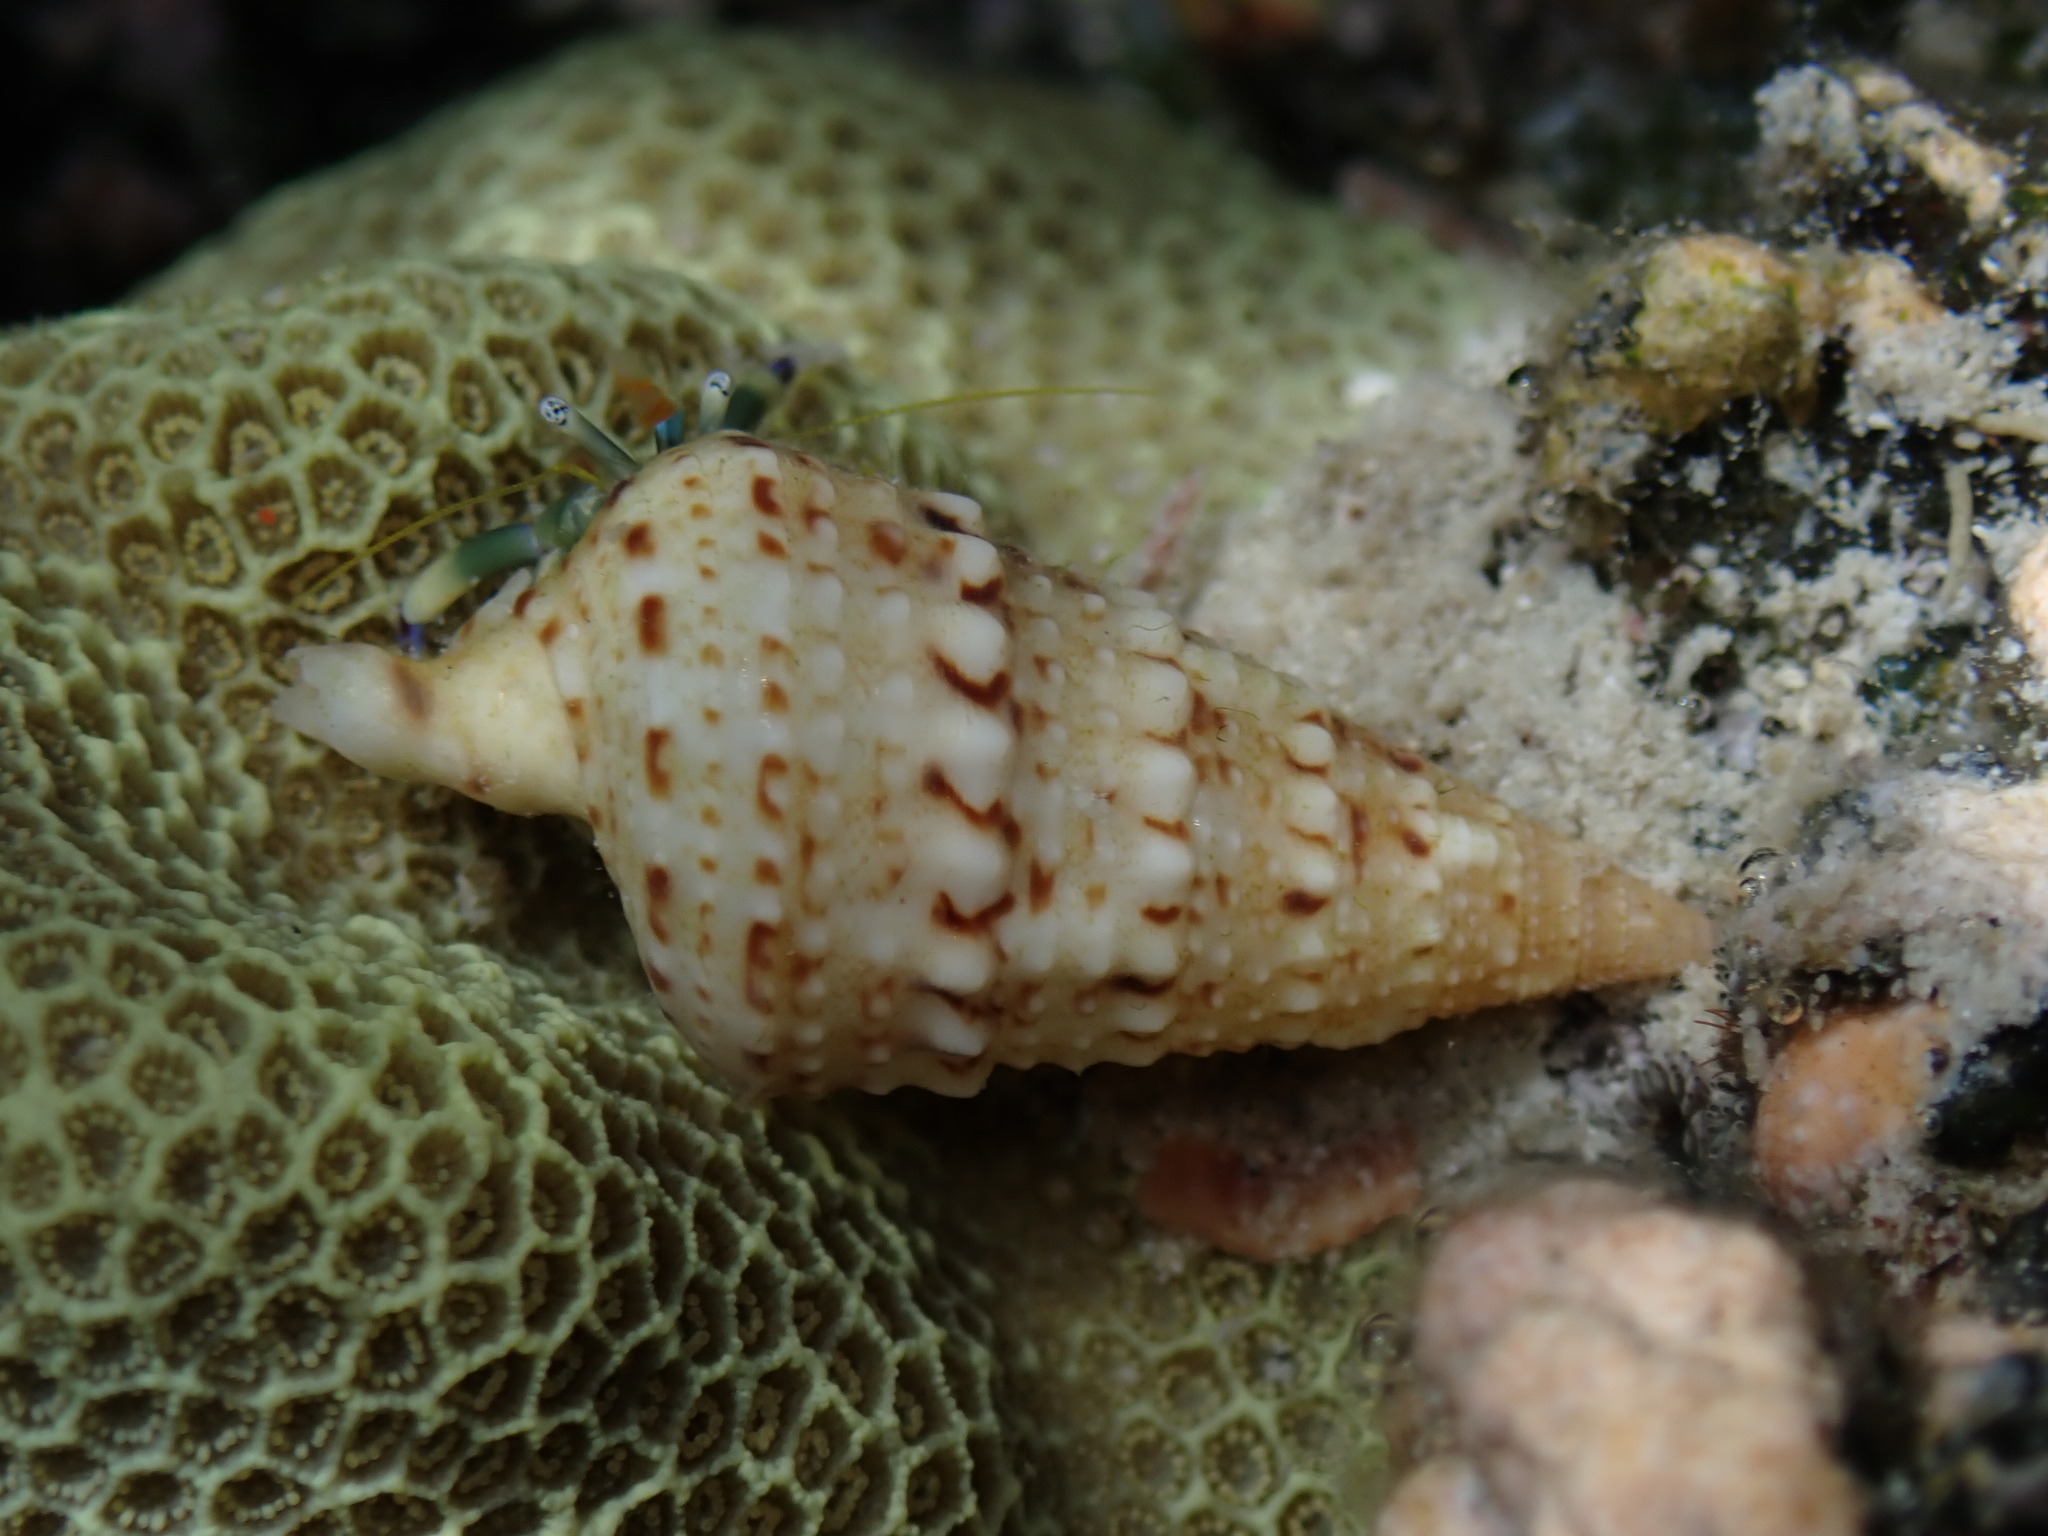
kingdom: Animalia
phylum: Mollusca
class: Gastropoda
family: Cerithiidae
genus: Rhinoclavis
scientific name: Rhinoclavis sinensis
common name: Knobbled horn shell
